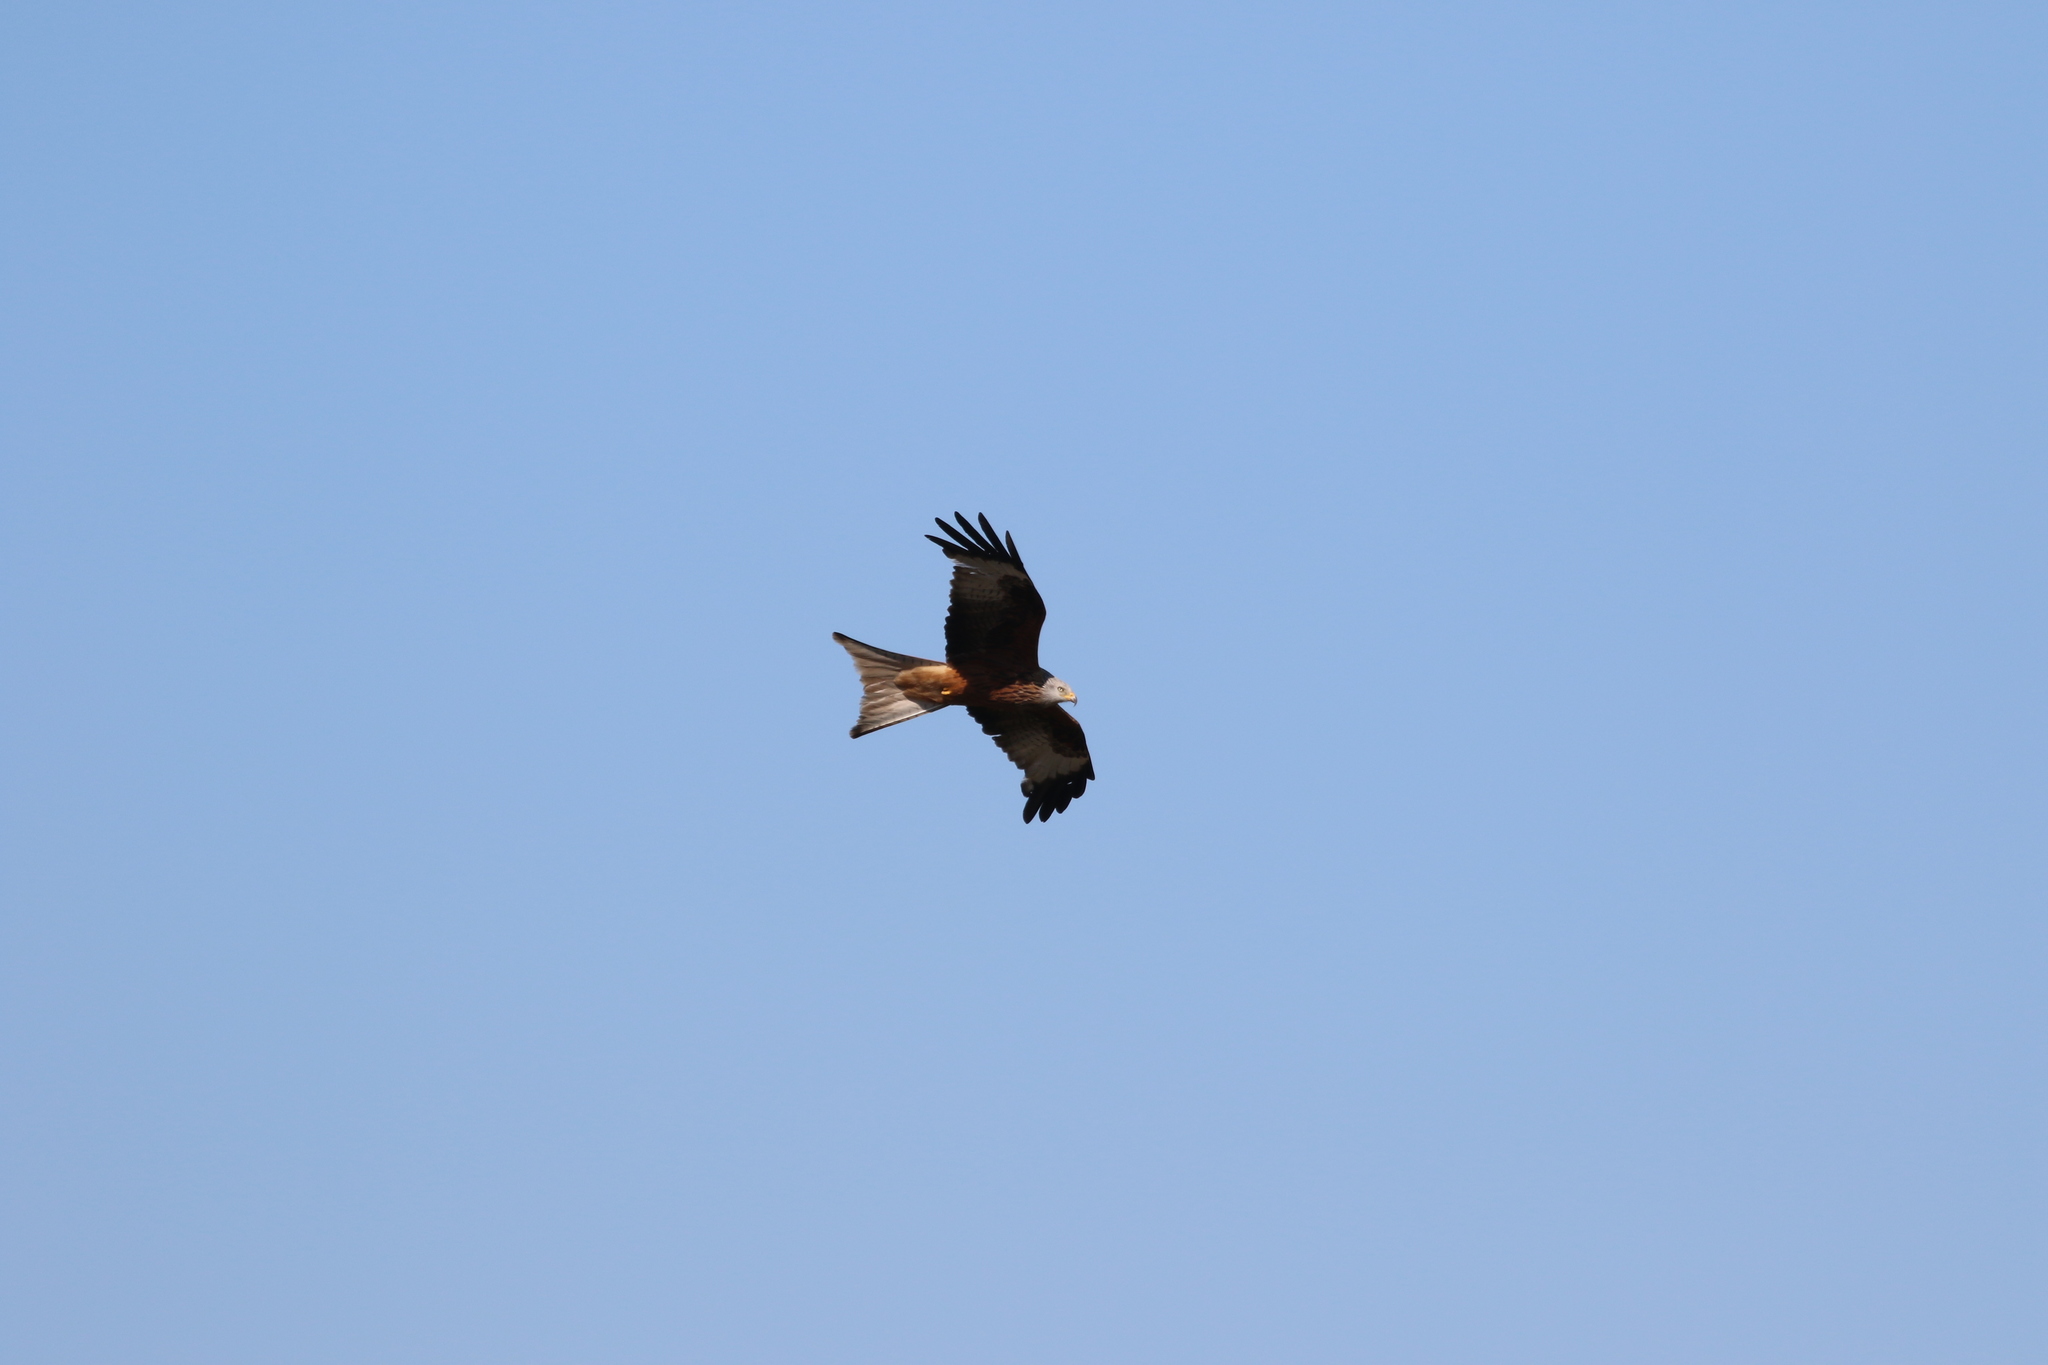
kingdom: Animalia
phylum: Chordata
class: Aves
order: Accipitriformes
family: Accipitridae
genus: Milvus
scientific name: Milvus milvus
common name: Red kite
